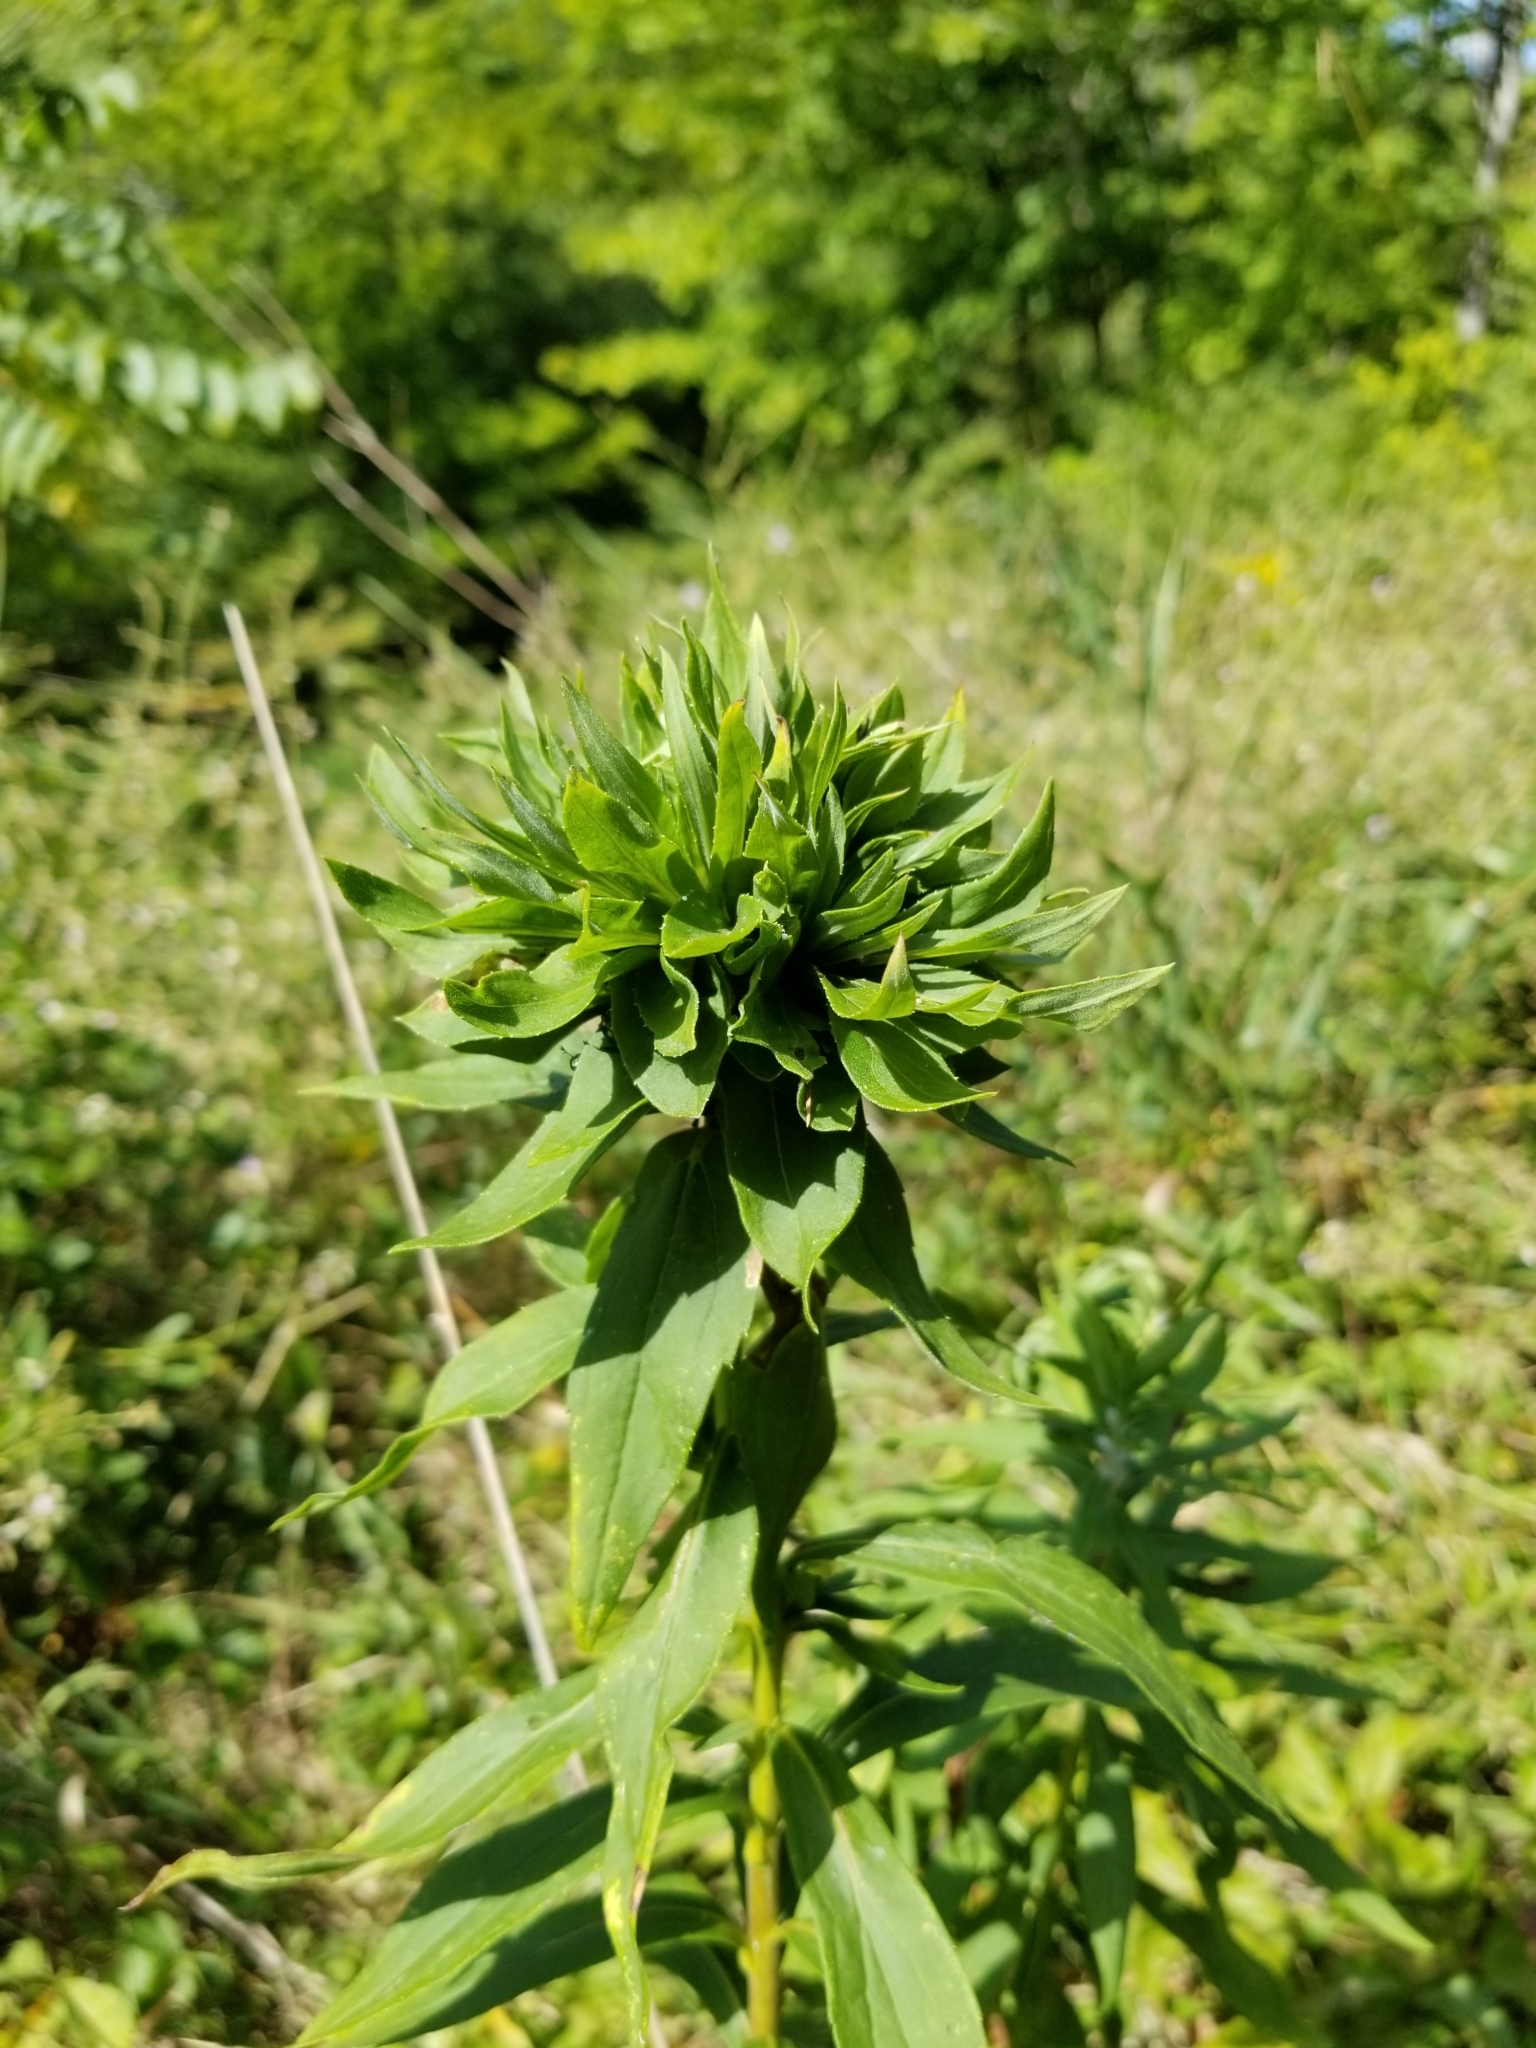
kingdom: Animalia
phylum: Arthropoda
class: Insecta
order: Diptera
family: Cecidomyiidae
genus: Rhopalomyia
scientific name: Rhopalomyia solidaginis
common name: Goldenrod bunch gall midge
